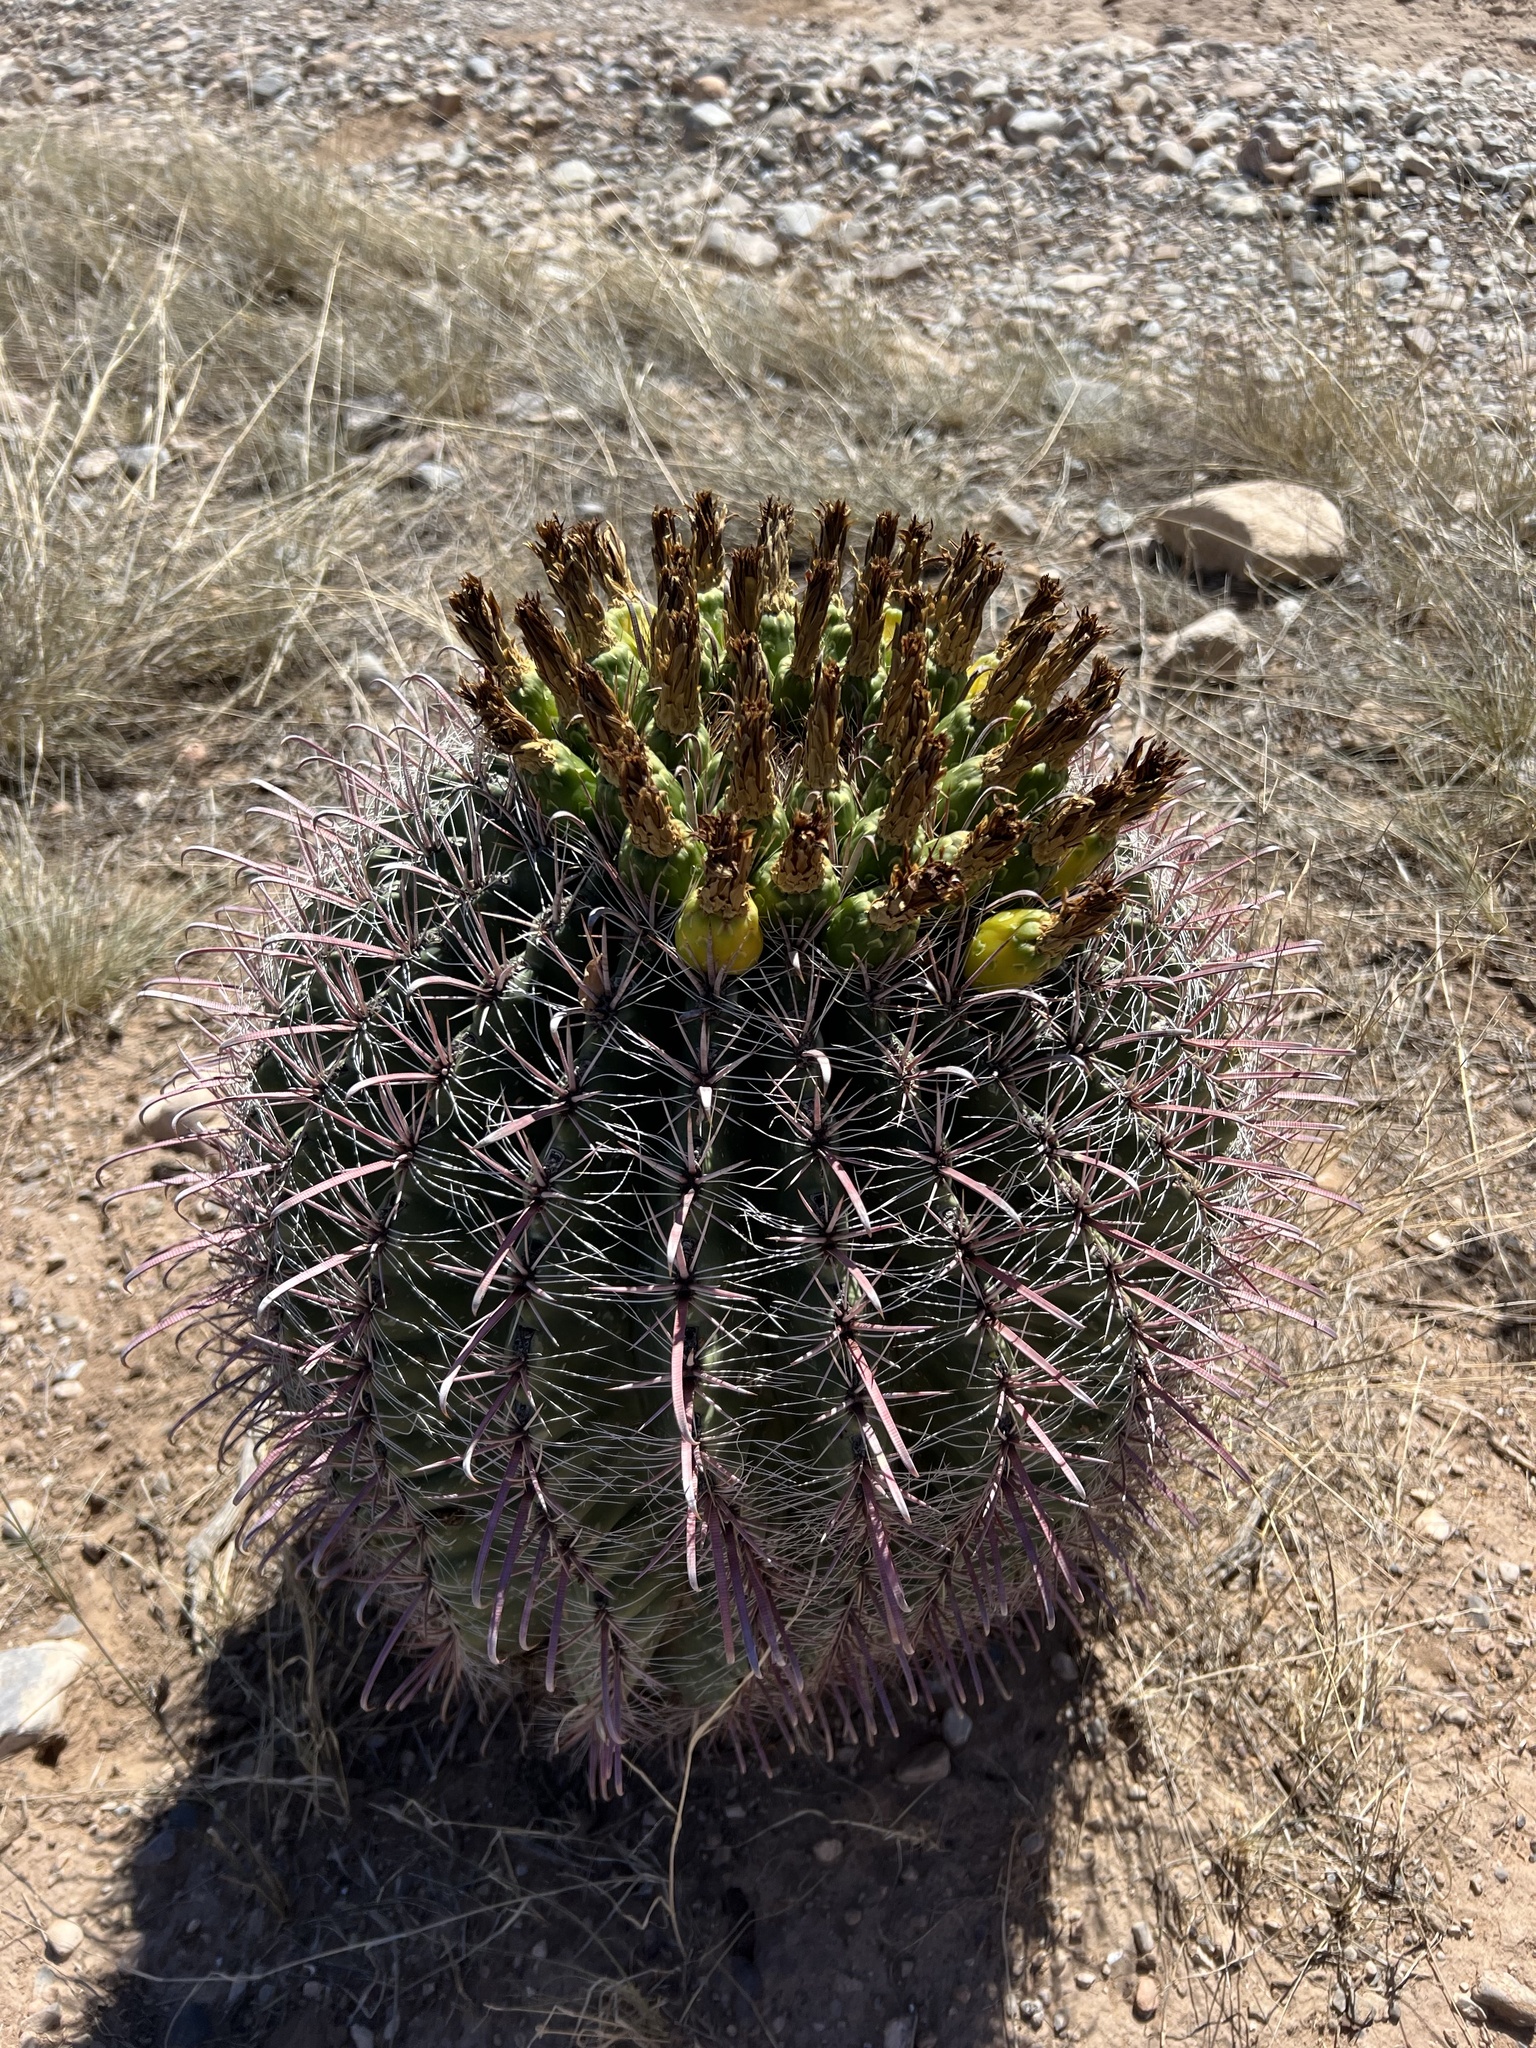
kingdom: Plantae
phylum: Tracheophyta
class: Magnoliopsida
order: Caryophyllales
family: Cactaceae
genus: Ferocactus
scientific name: Ferocactus wislizeni
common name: Candy barrel cactus
